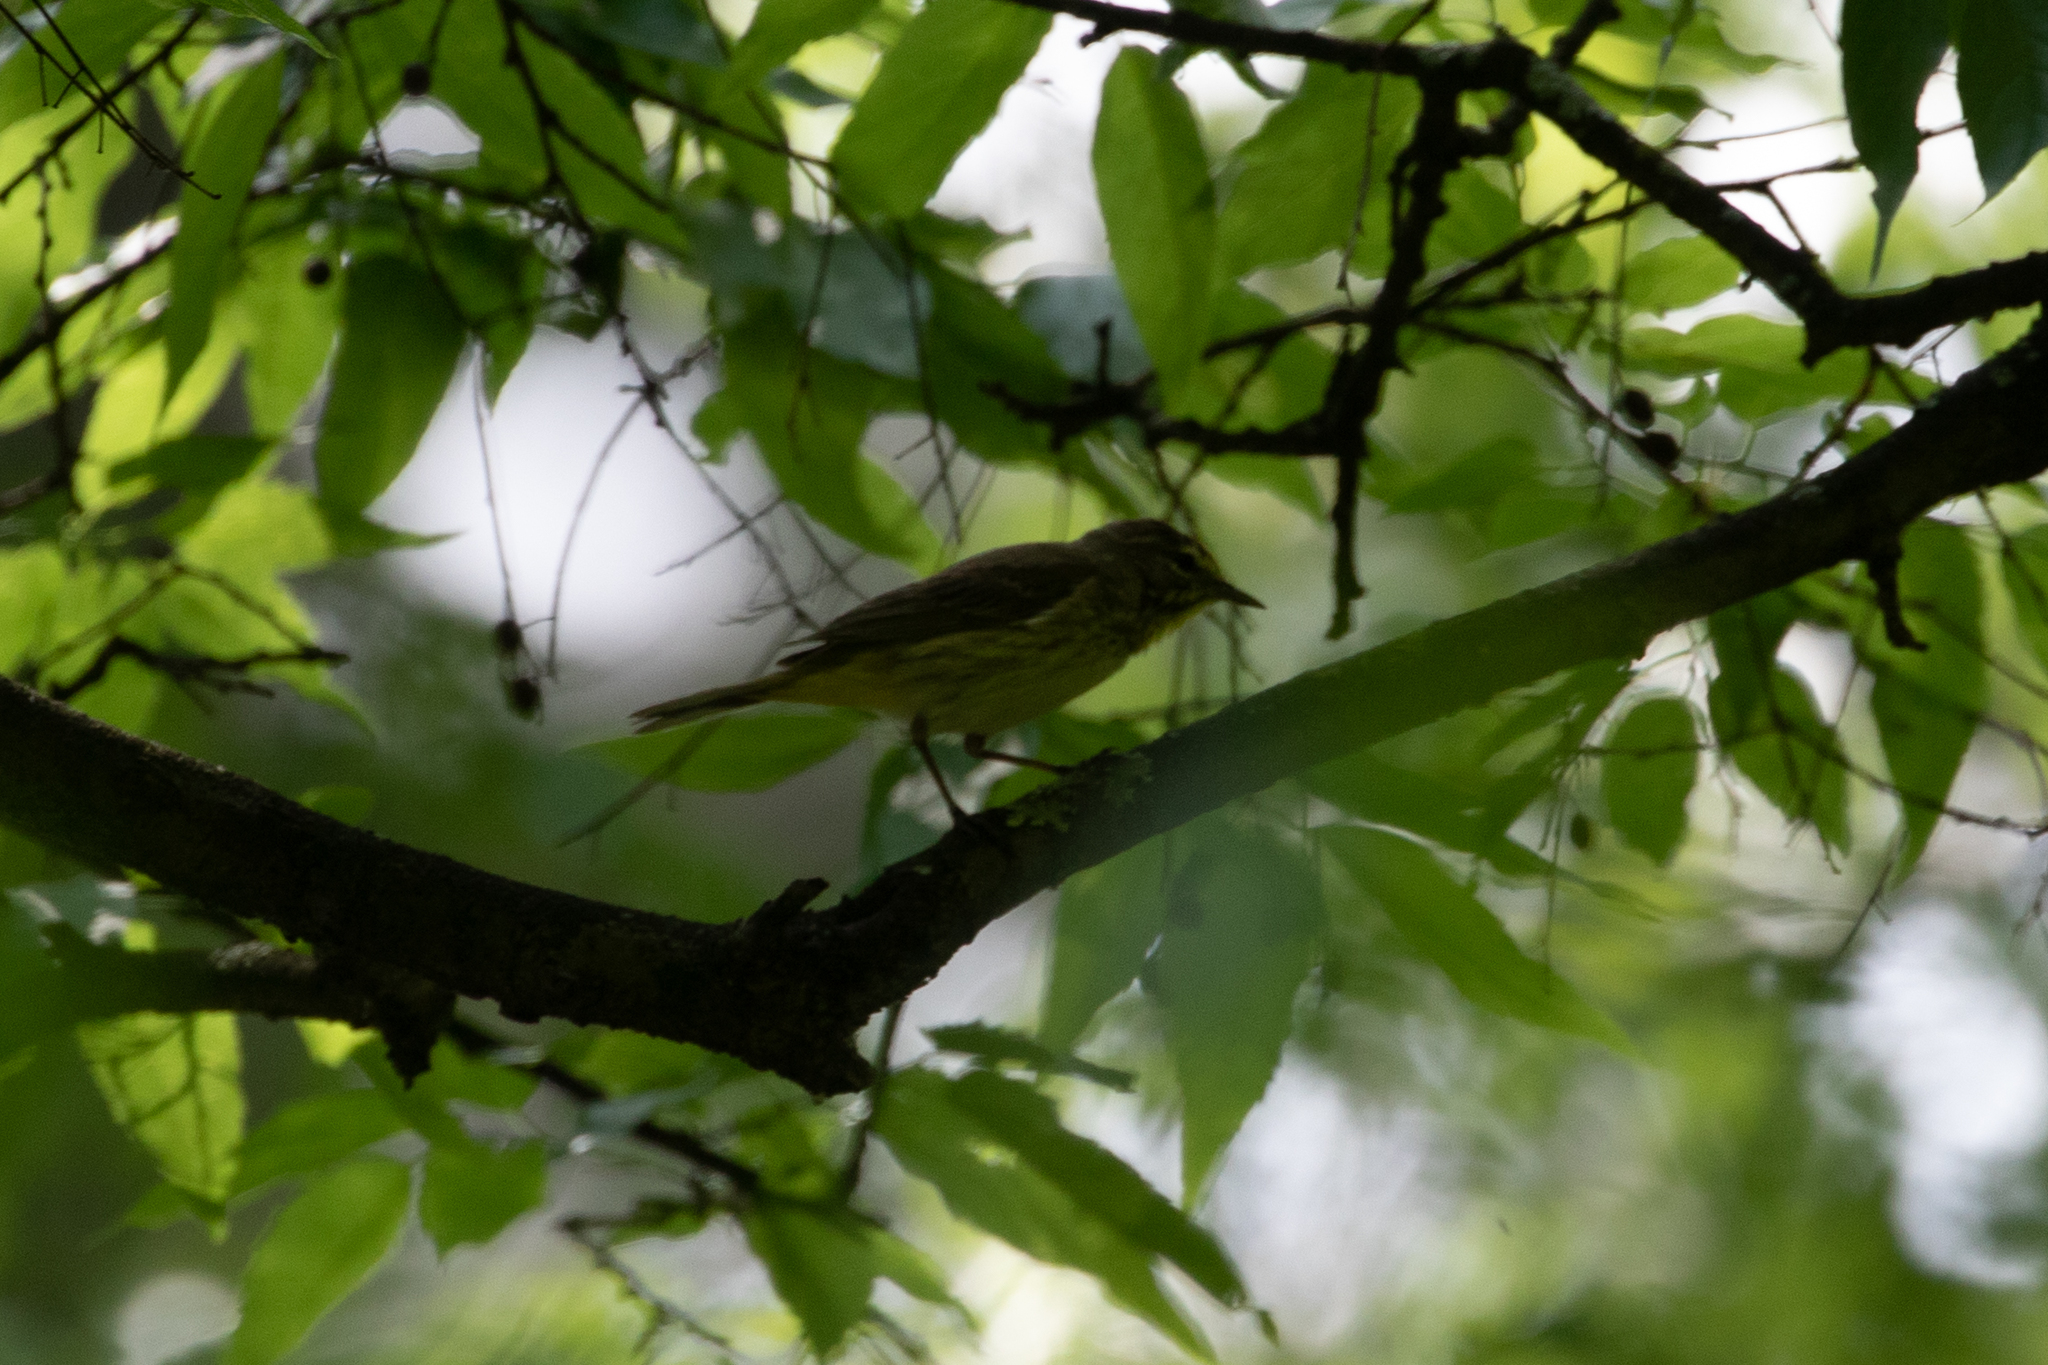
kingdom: Animalia
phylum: Chordata
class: Aves
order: Passeriformes
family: Parulidae
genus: Setophaga
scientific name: Setophaga palmarum
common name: Palm warbler
